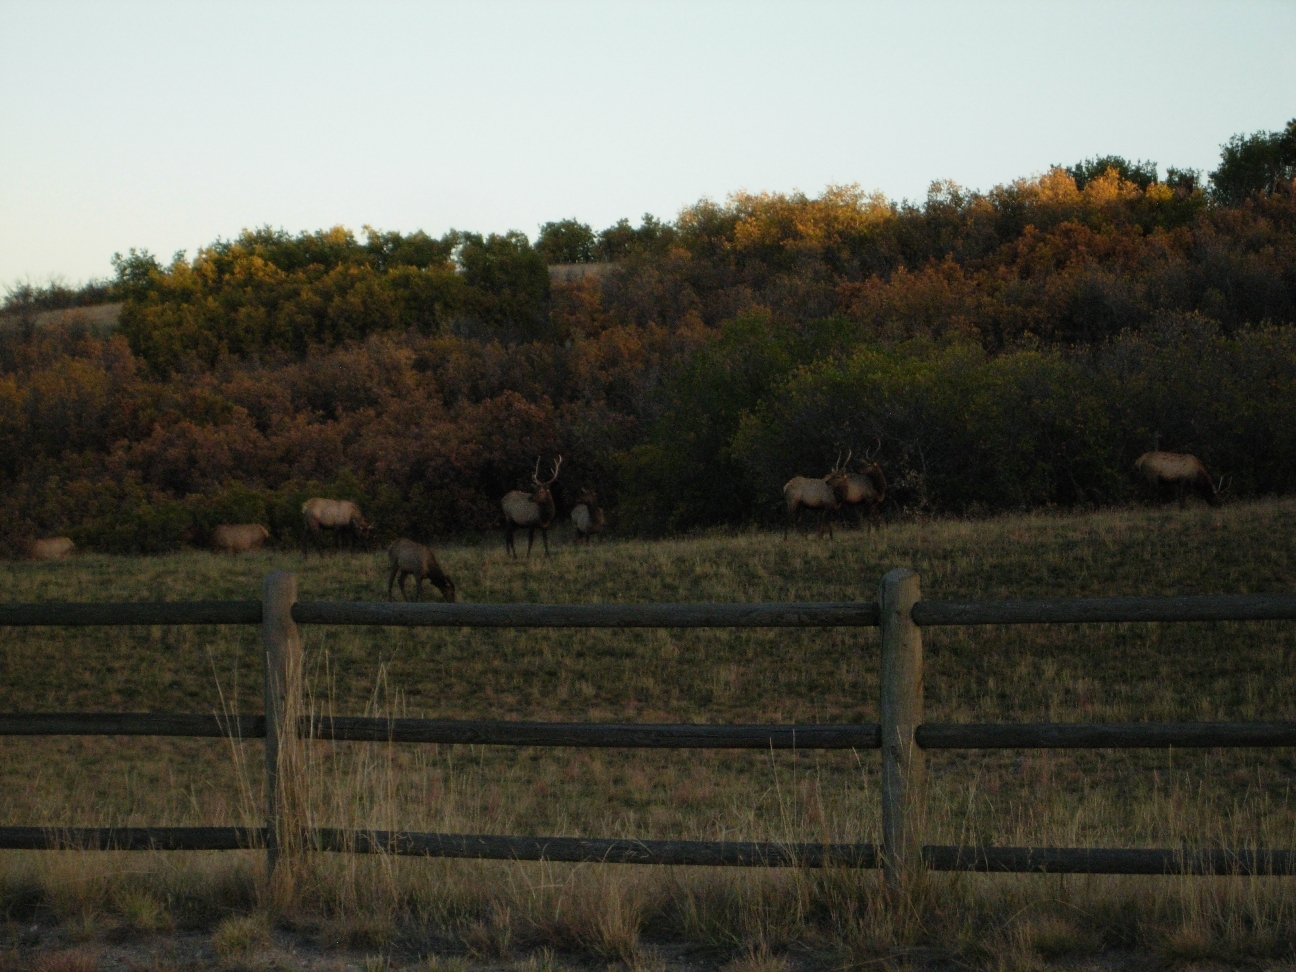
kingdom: Animalia
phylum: Chordata
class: Mammalia
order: Artiodactyla
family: Cervidae
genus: Cervus
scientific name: Cervus elaphus
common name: Red deer
